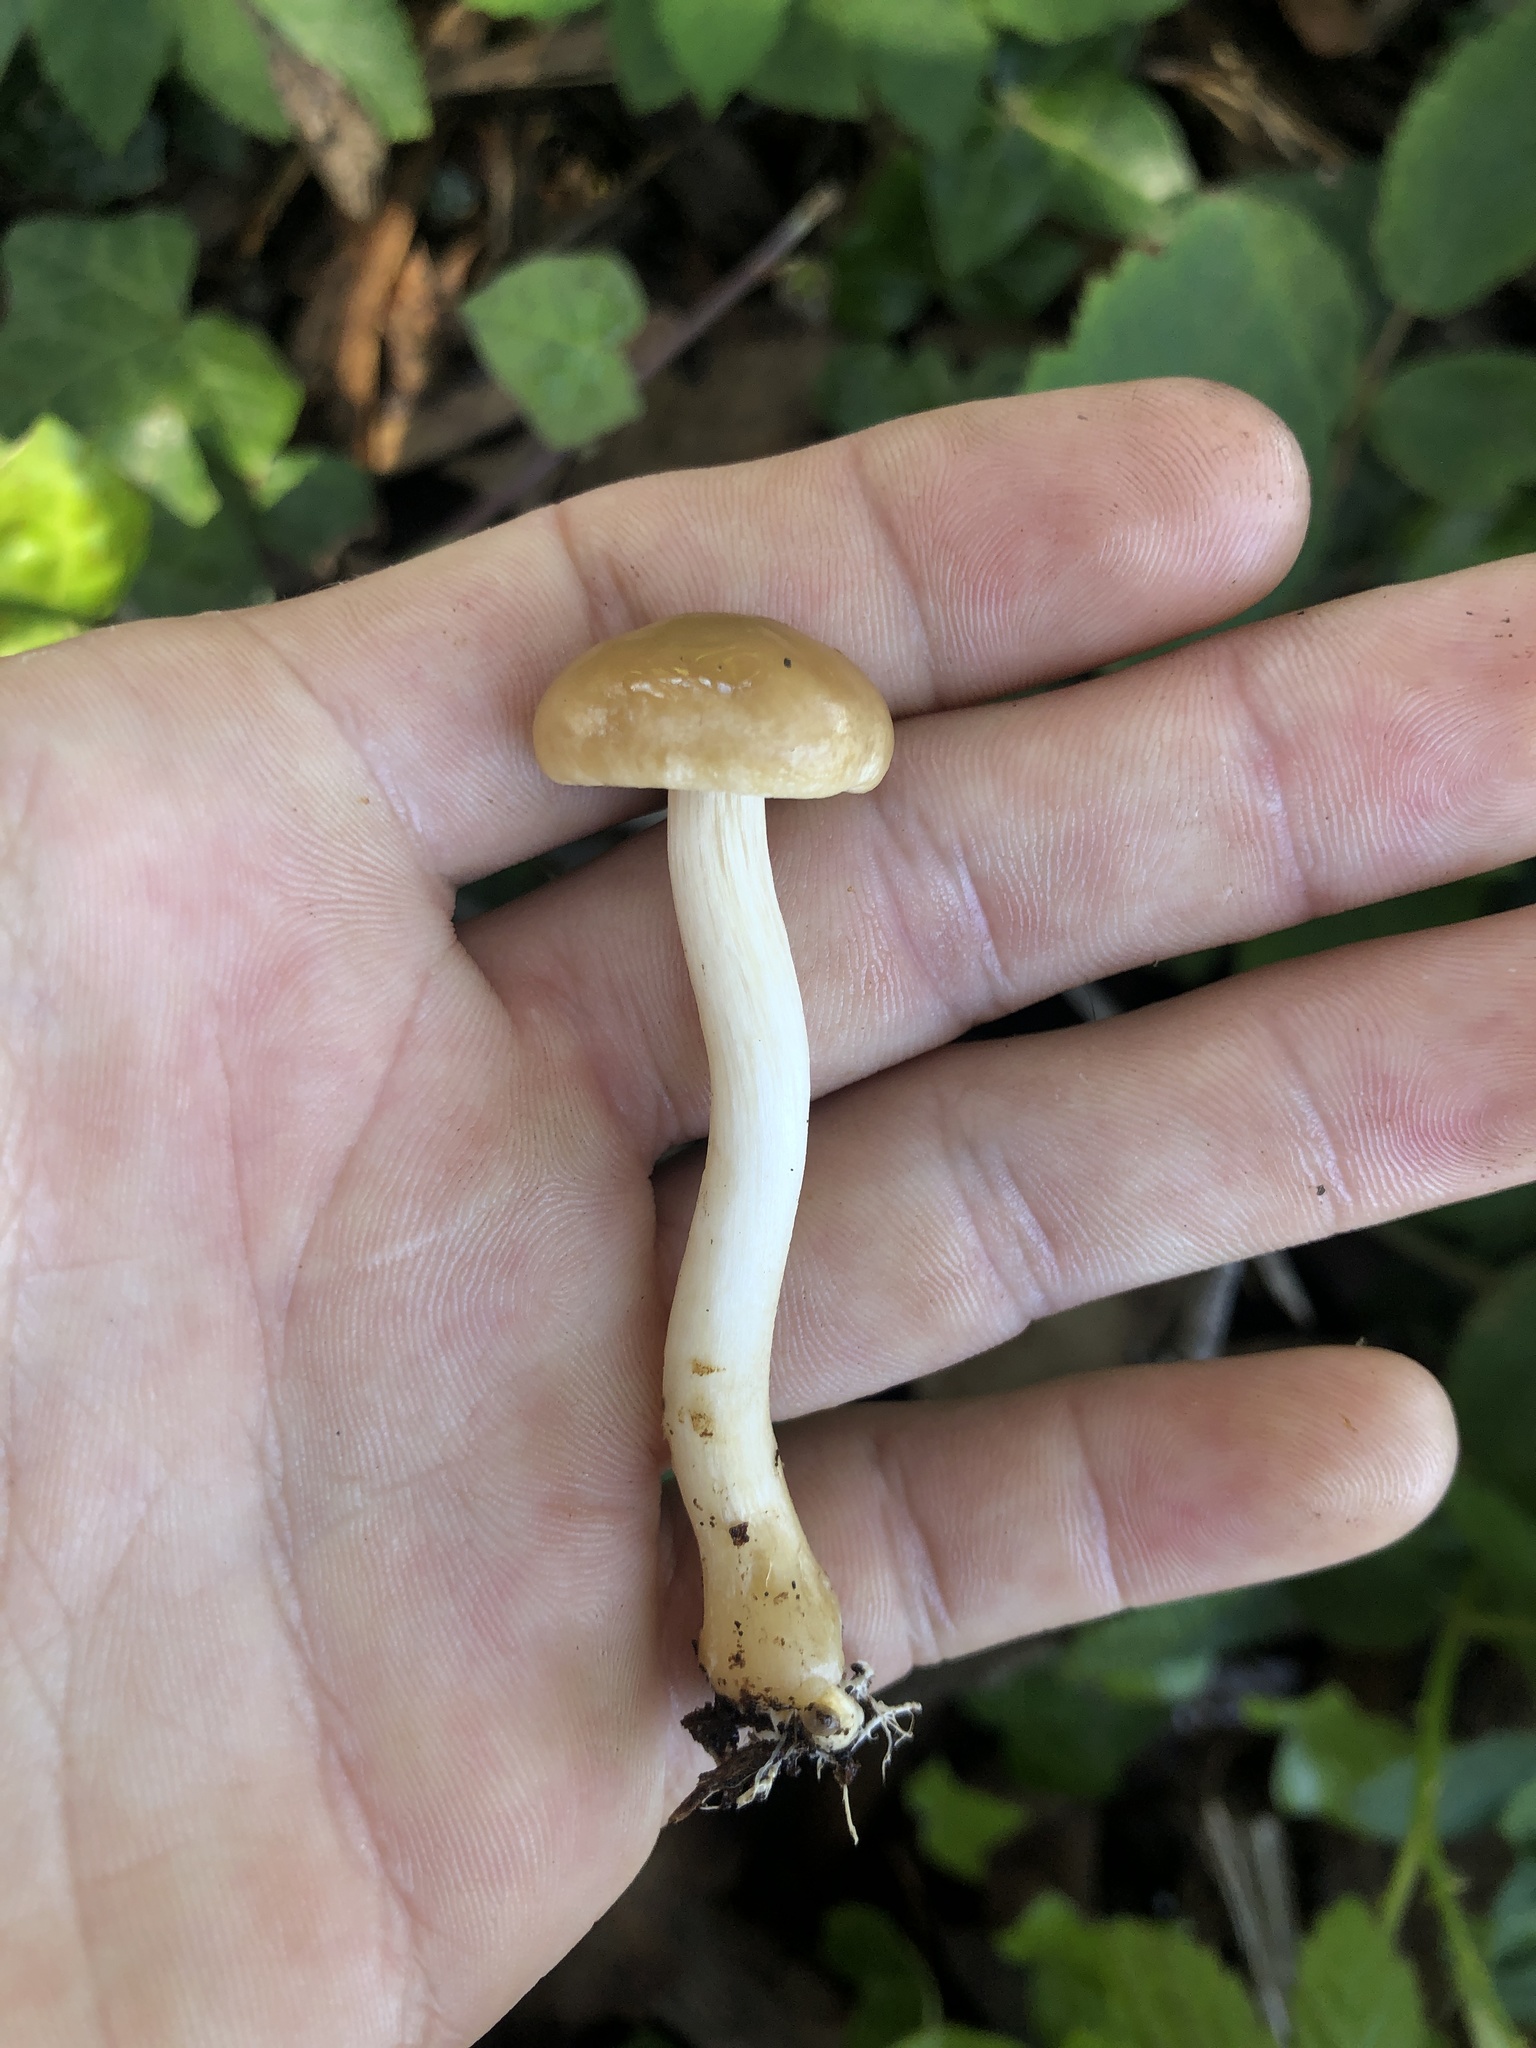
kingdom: Fungi
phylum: Basidiomycota
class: Agaricomycetes
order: Agaricales
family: Strophariaceae
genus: Agrocybe
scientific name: Agrocybe praecox
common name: Spring fieldcap
